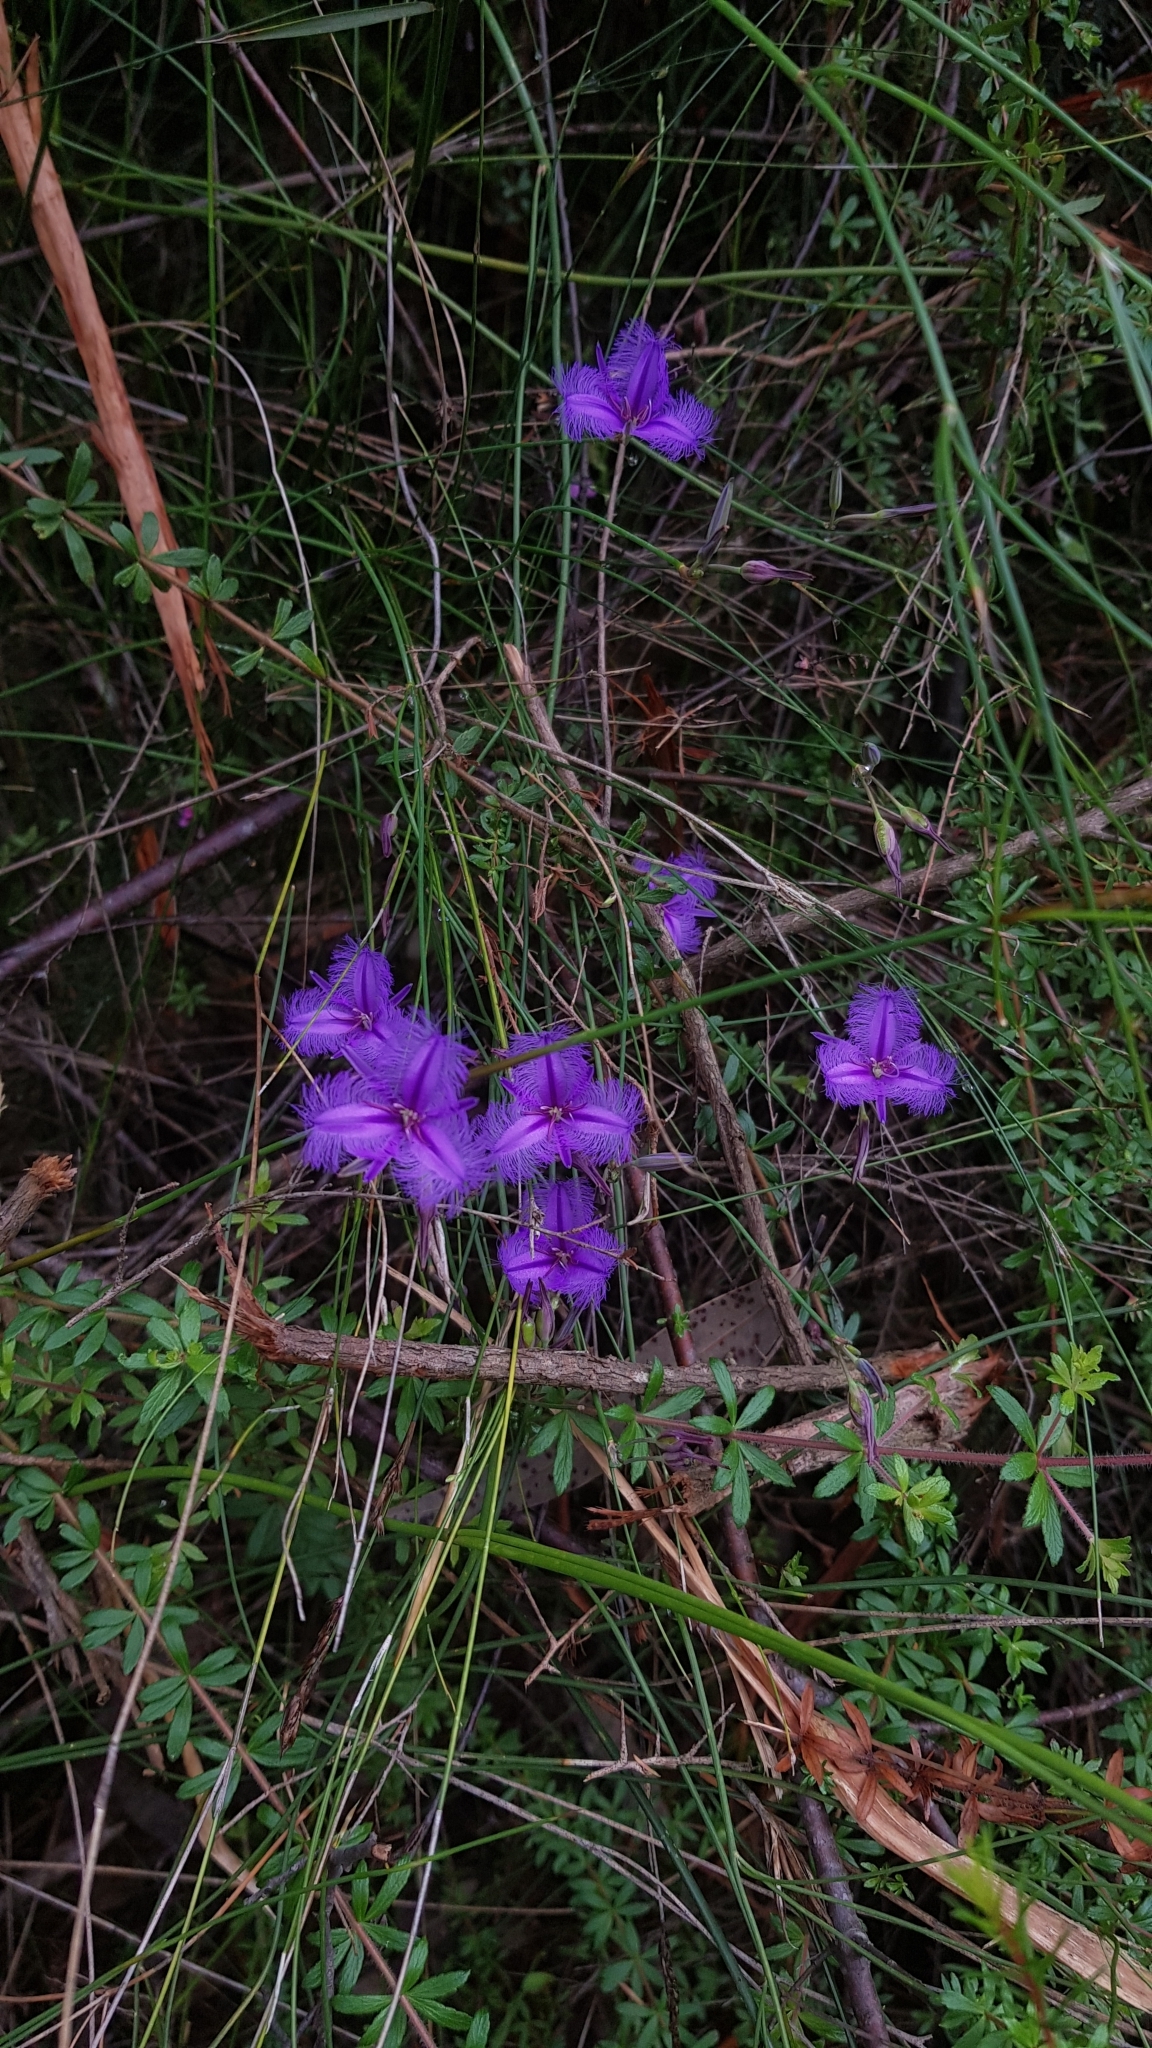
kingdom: Plantae
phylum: Tracheophyta
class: Liliopsida
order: Asparagales
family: Asparagaceae
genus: Thysanotus
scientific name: Thysanotus tuberosus
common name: Common fringed-lily
